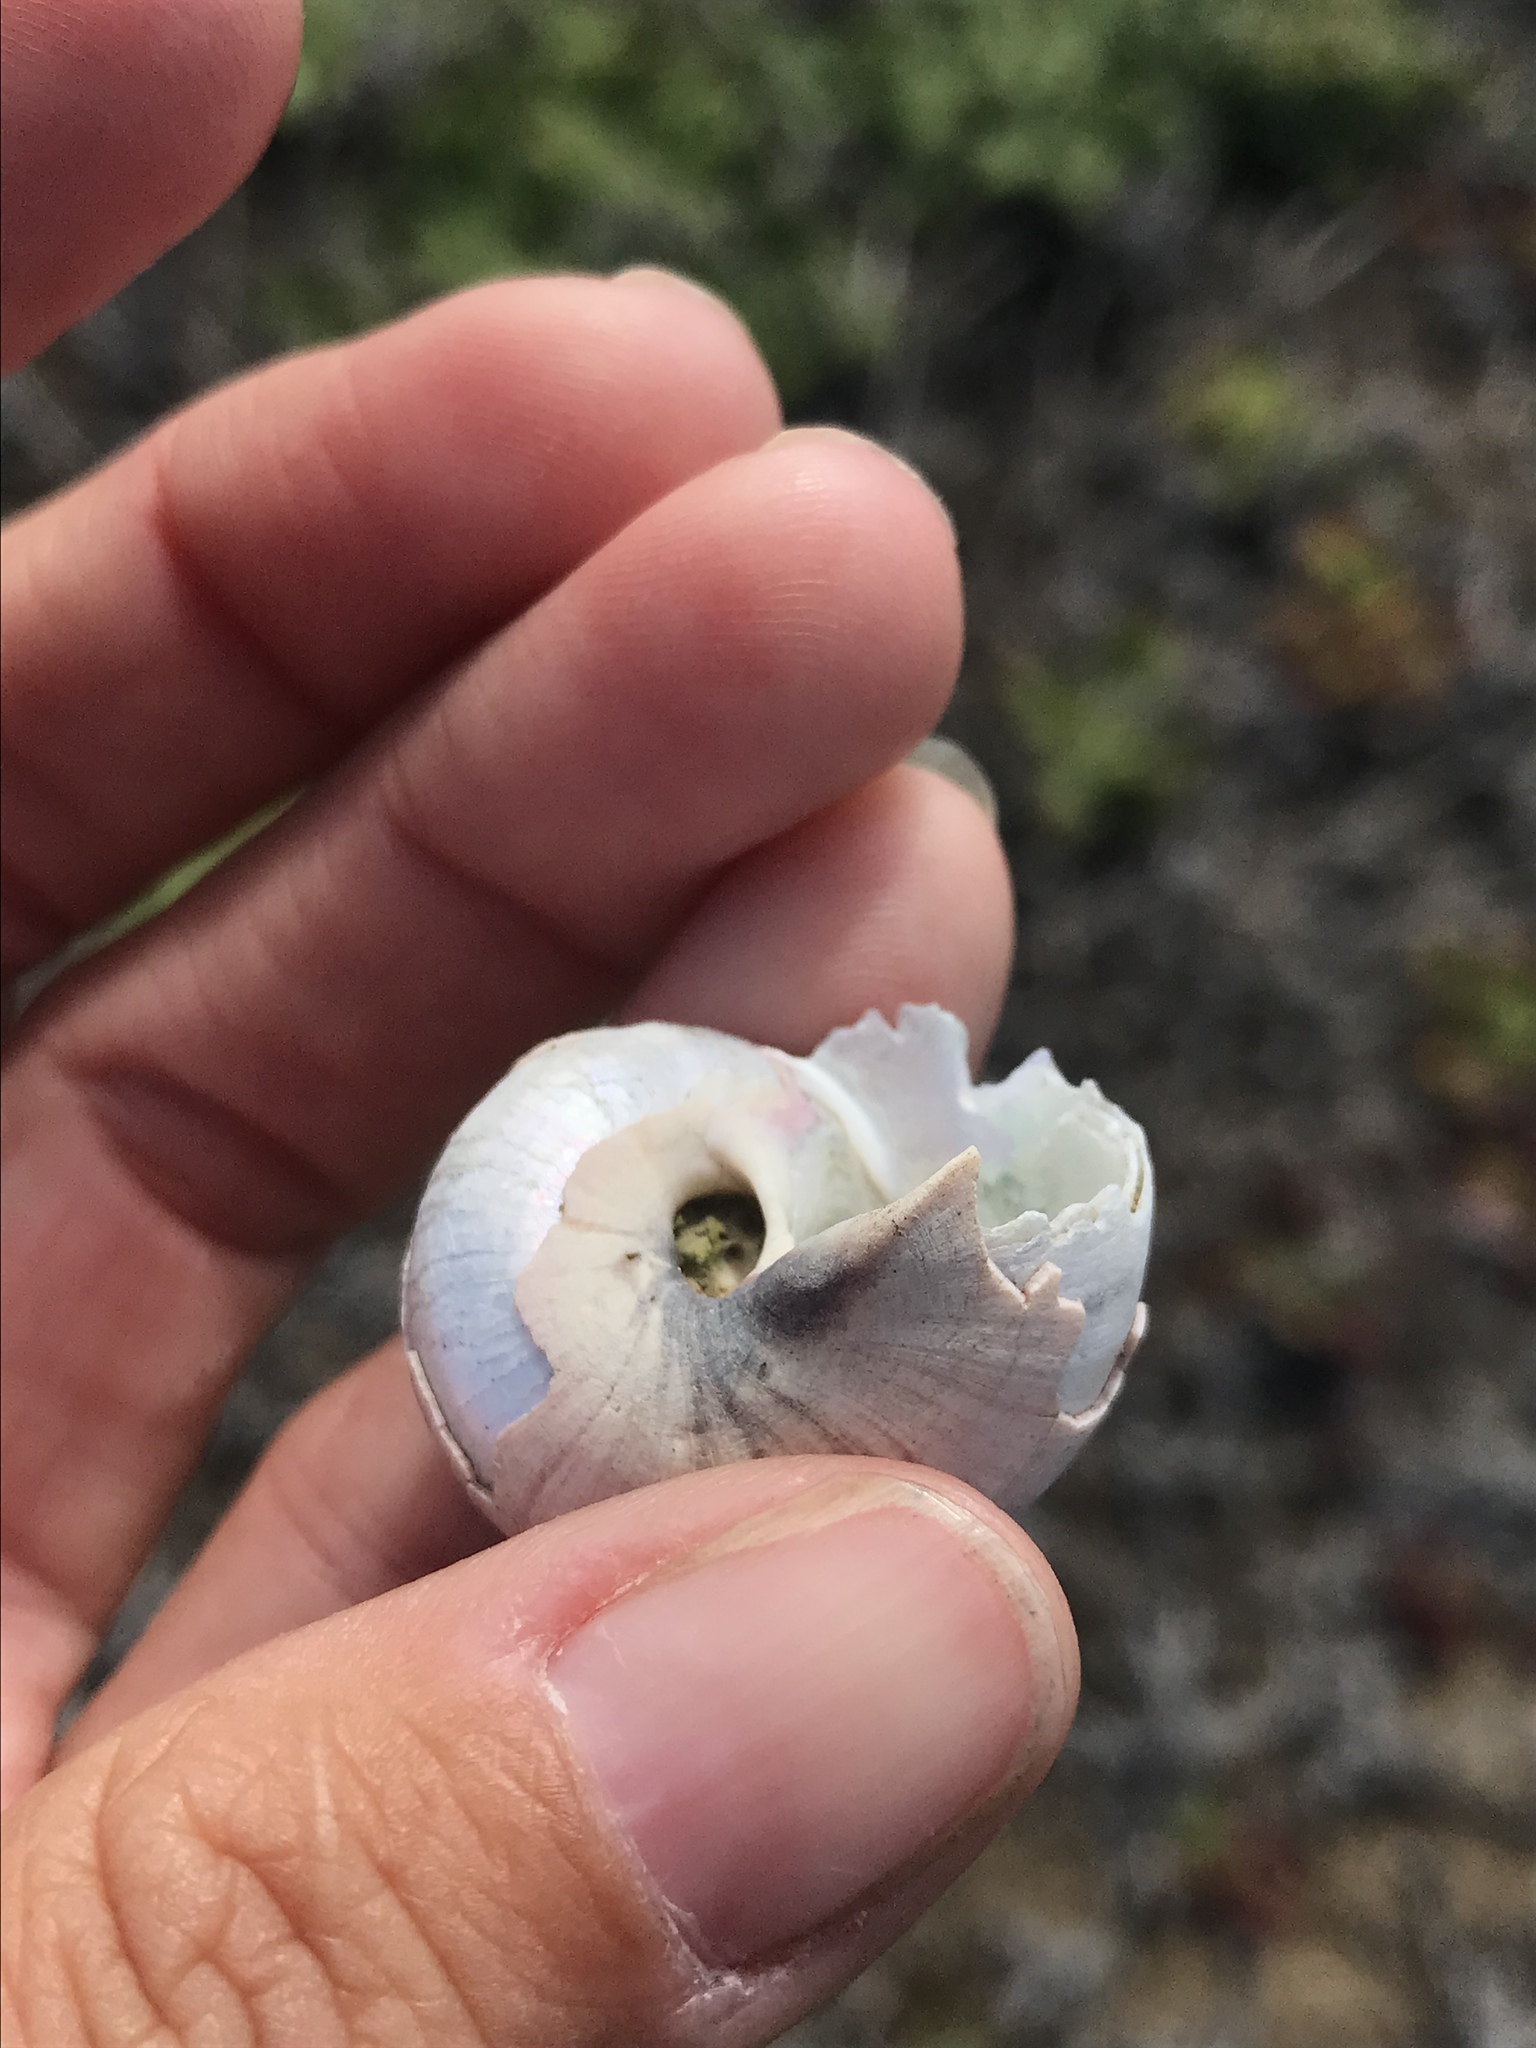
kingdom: Animalia
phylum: Mollusca
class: Gastropoda
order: Trochida
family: Tegulidae
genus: Norrisia
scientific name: Norrisia norrisii
